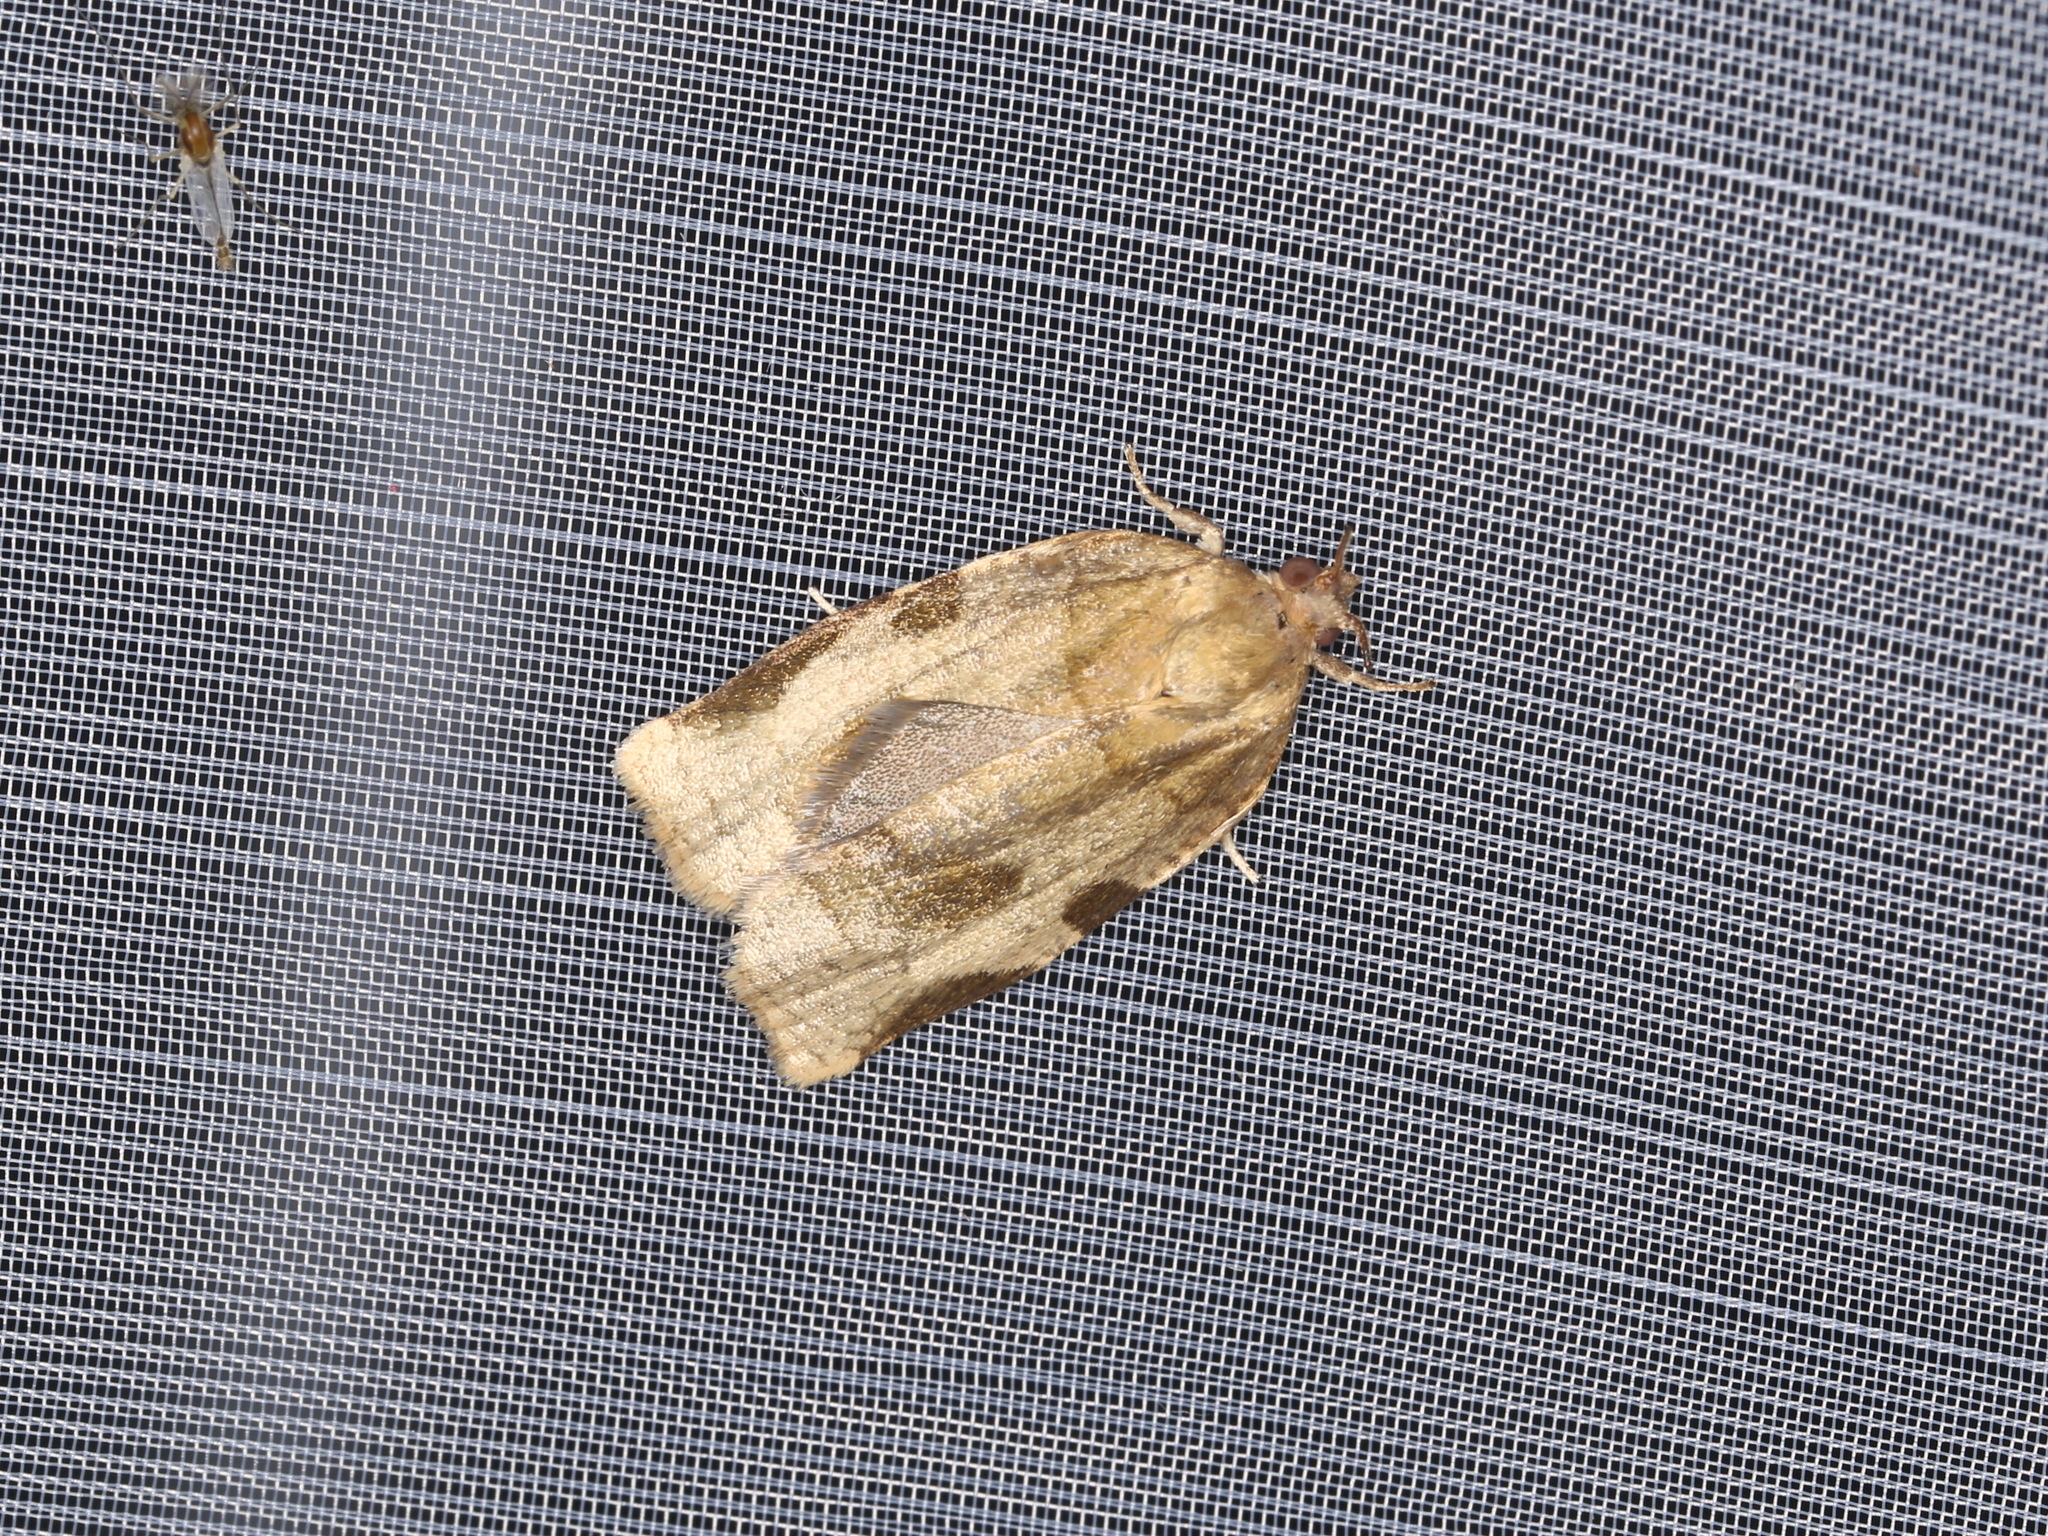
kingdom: Animalia
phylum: Arthropoda
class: Insecta
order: Lepidoptera
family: Tortricidae
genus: Choristoneura
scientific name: Choristoneura hebenstreitella
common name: Great twist
